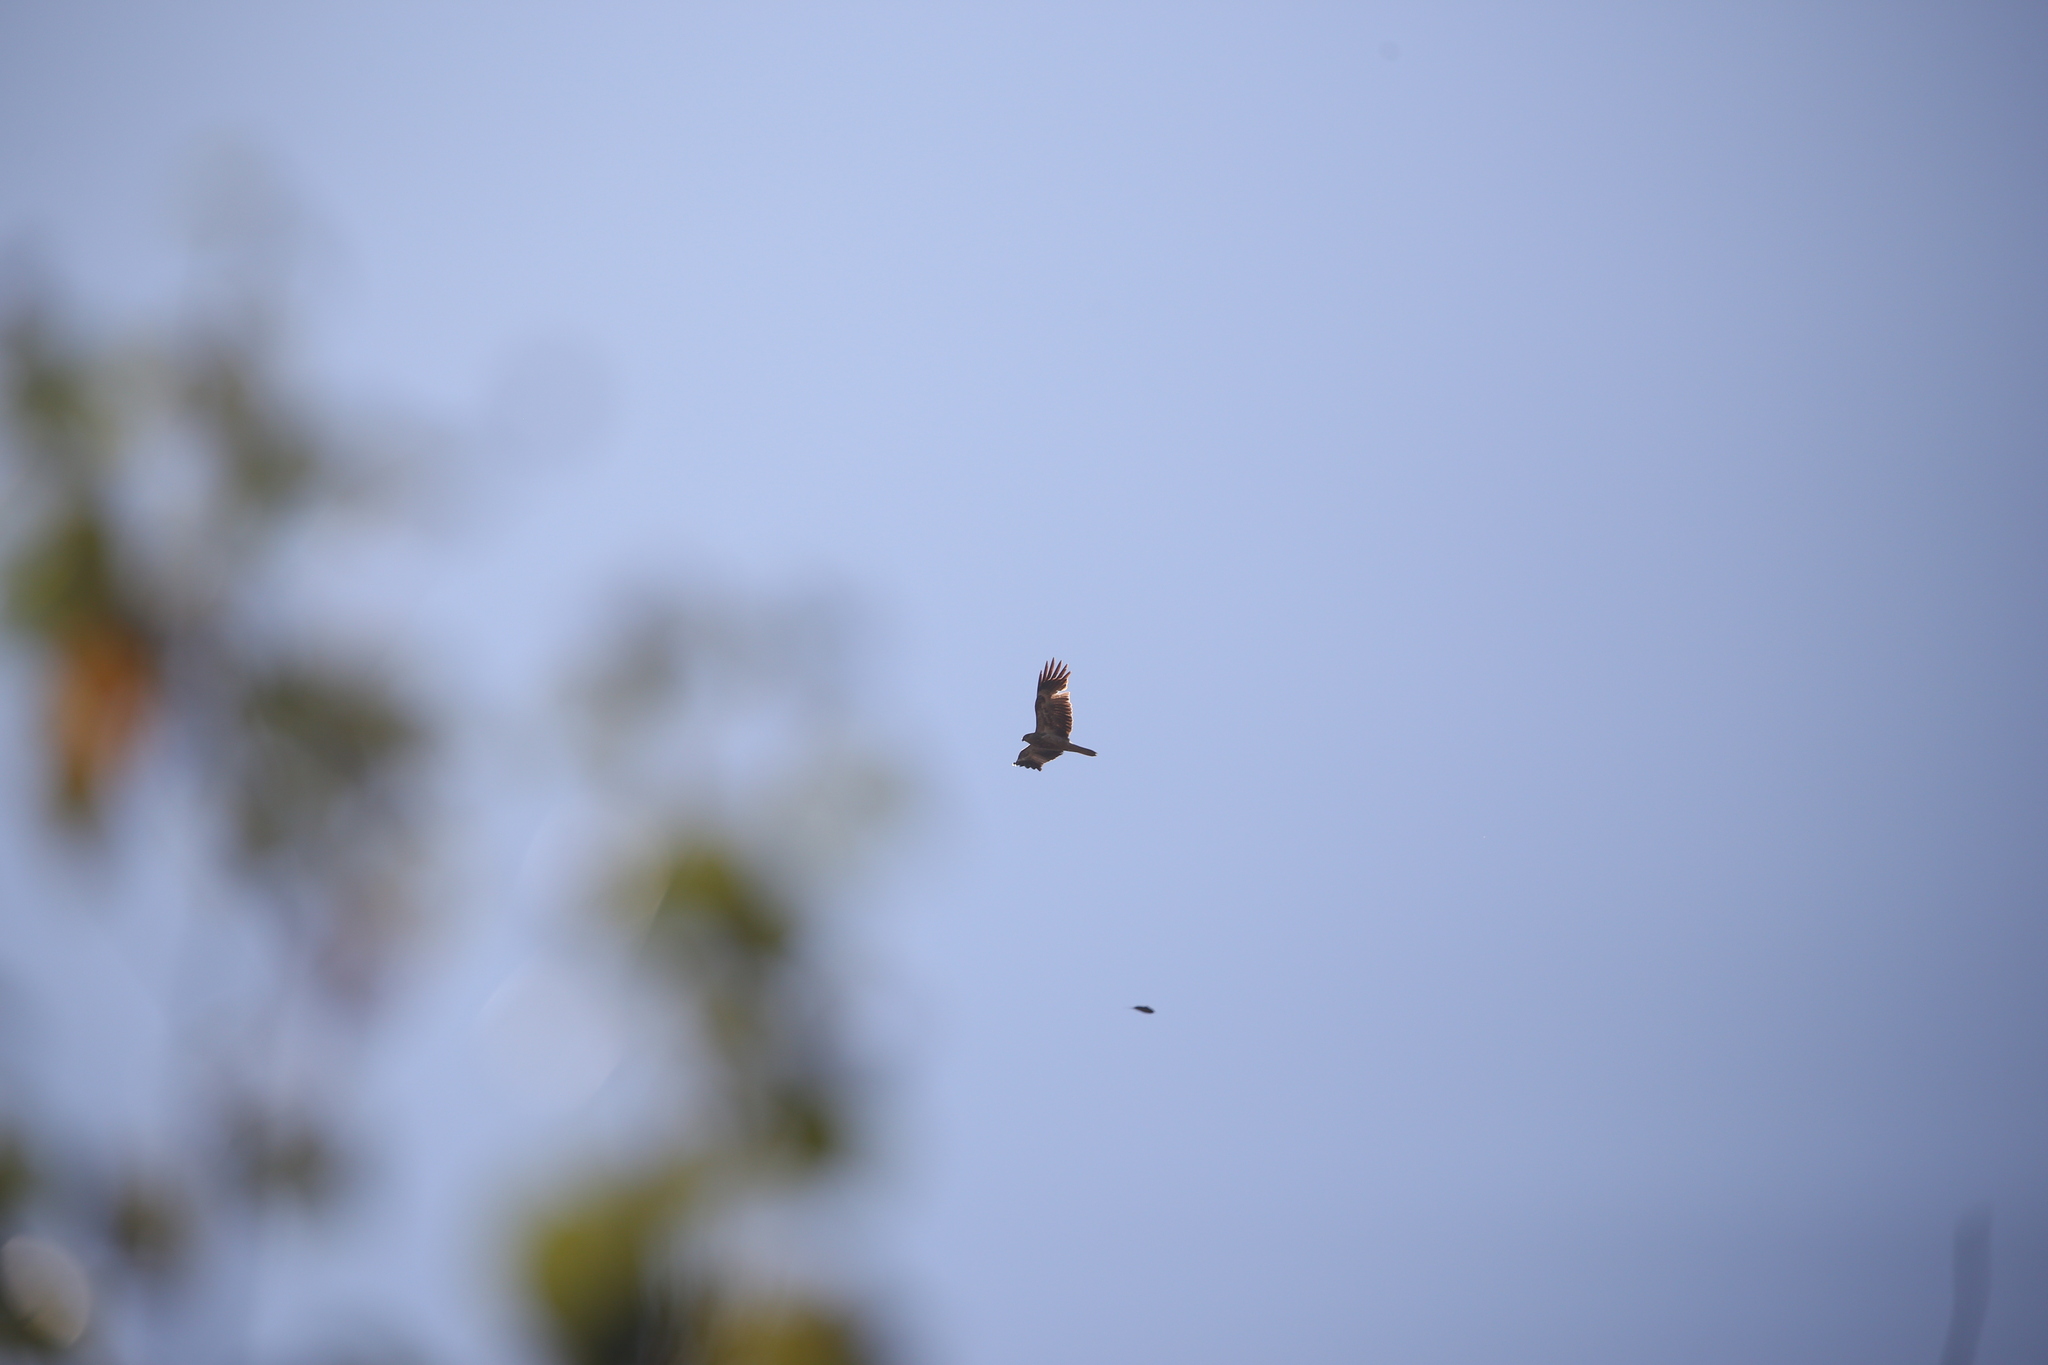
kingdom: Animalia
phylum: Chordata
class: Aves
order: Accipitriformes
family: Accipitridae
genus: Haliastur
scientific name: Haliastur sphenurus
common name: Whistling kite
